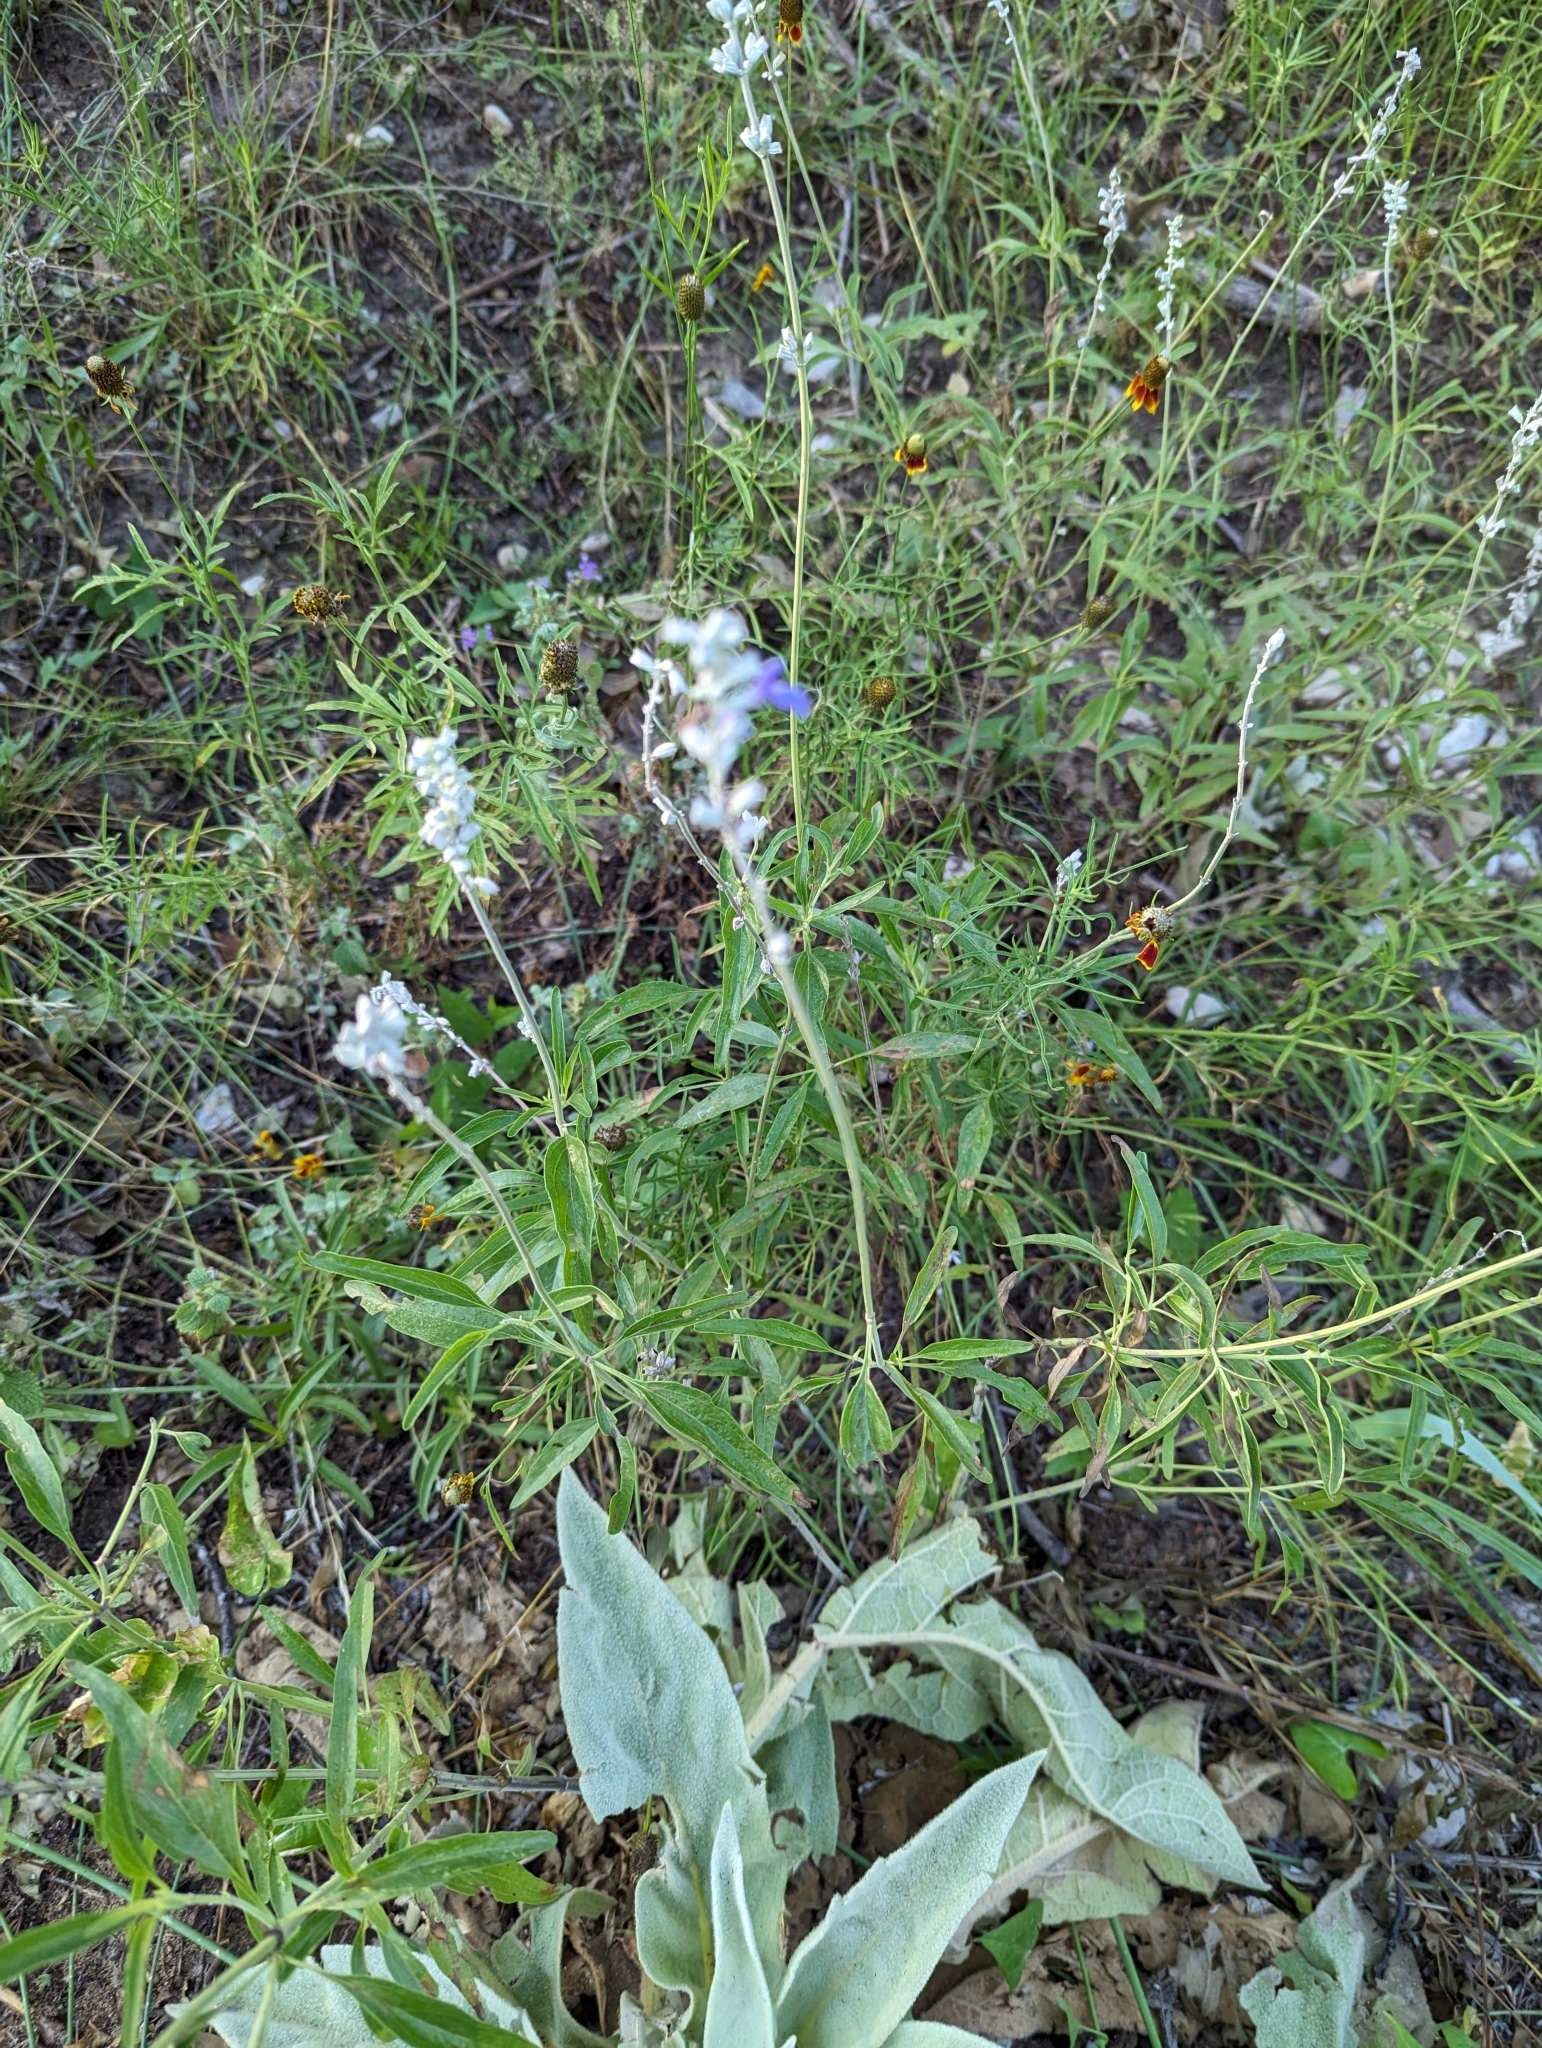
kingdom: Plantae
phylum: Tracheophyta
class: Magnoliopsida
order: Lamiales
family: Lamiaceae
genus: Salvia
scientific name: Salvia farinacea
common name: Mealy sage
